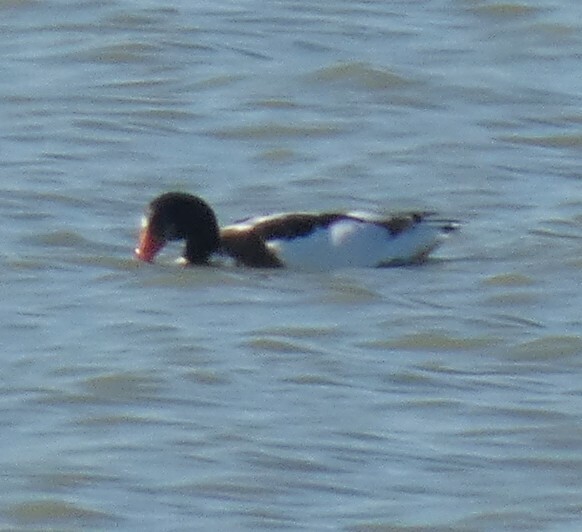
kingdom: Animalia
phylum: Chordata
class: Aves
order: Anseriformes
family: Anatidae
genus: Tadorna
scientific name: Tadorna tadorna
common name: Common shelduck
